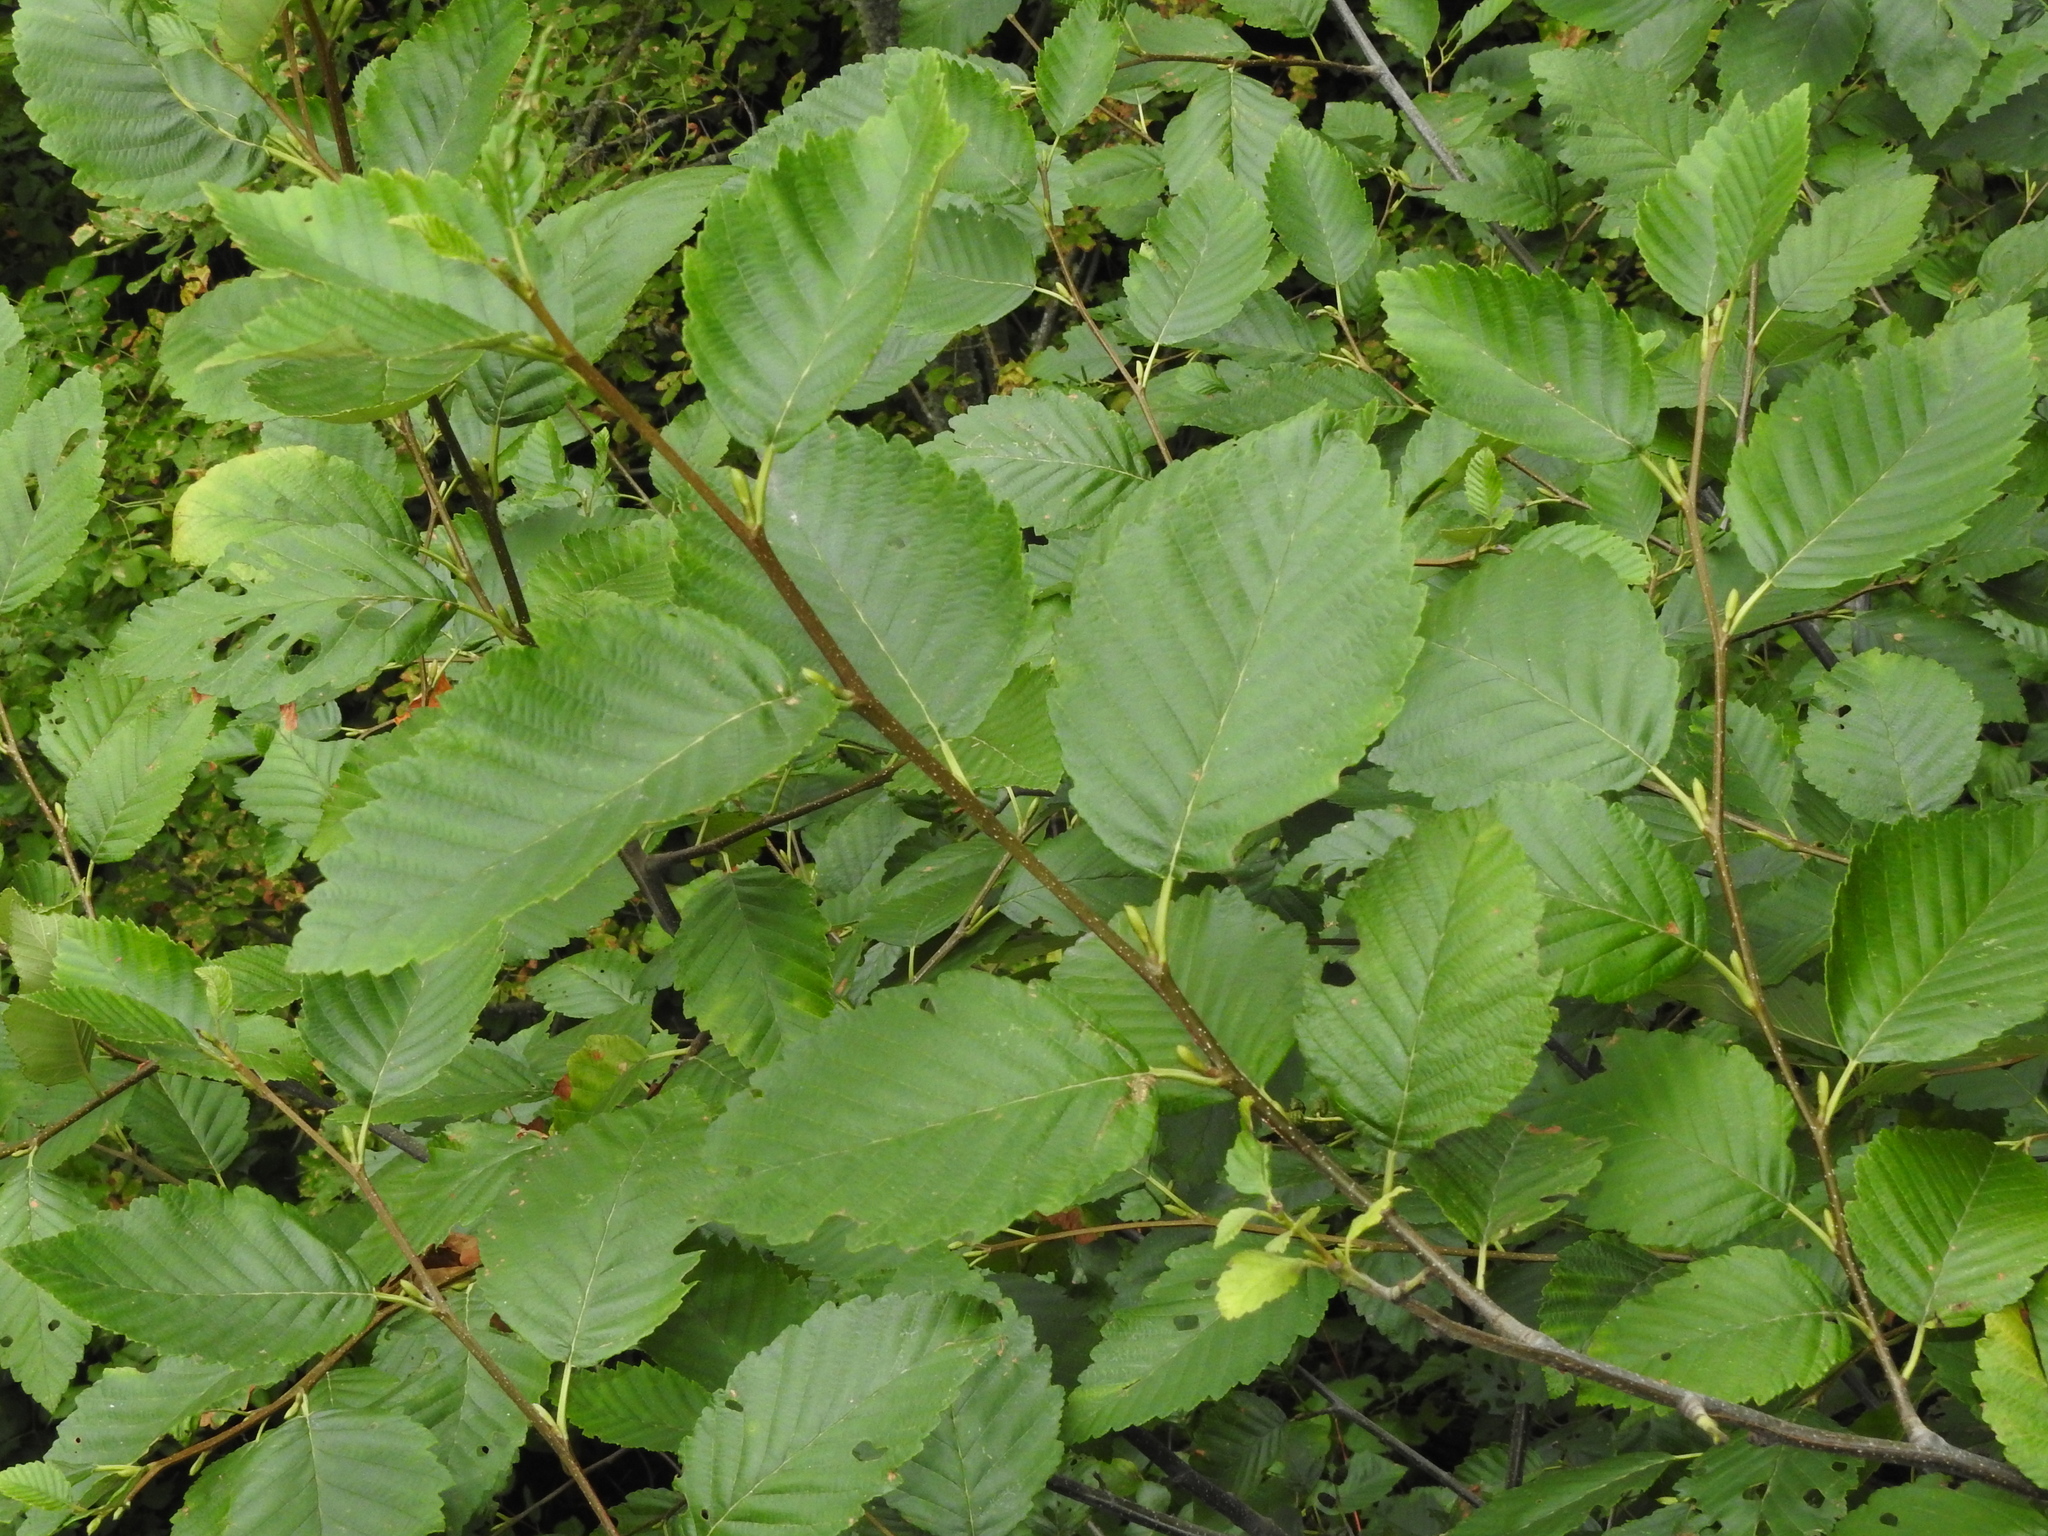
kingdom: Plantae
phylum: Tracheophyta
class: Magnoliopsida
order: Fagales
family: Betulaceae
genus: Alnus
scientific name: Alnus rubra
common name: Red alder
